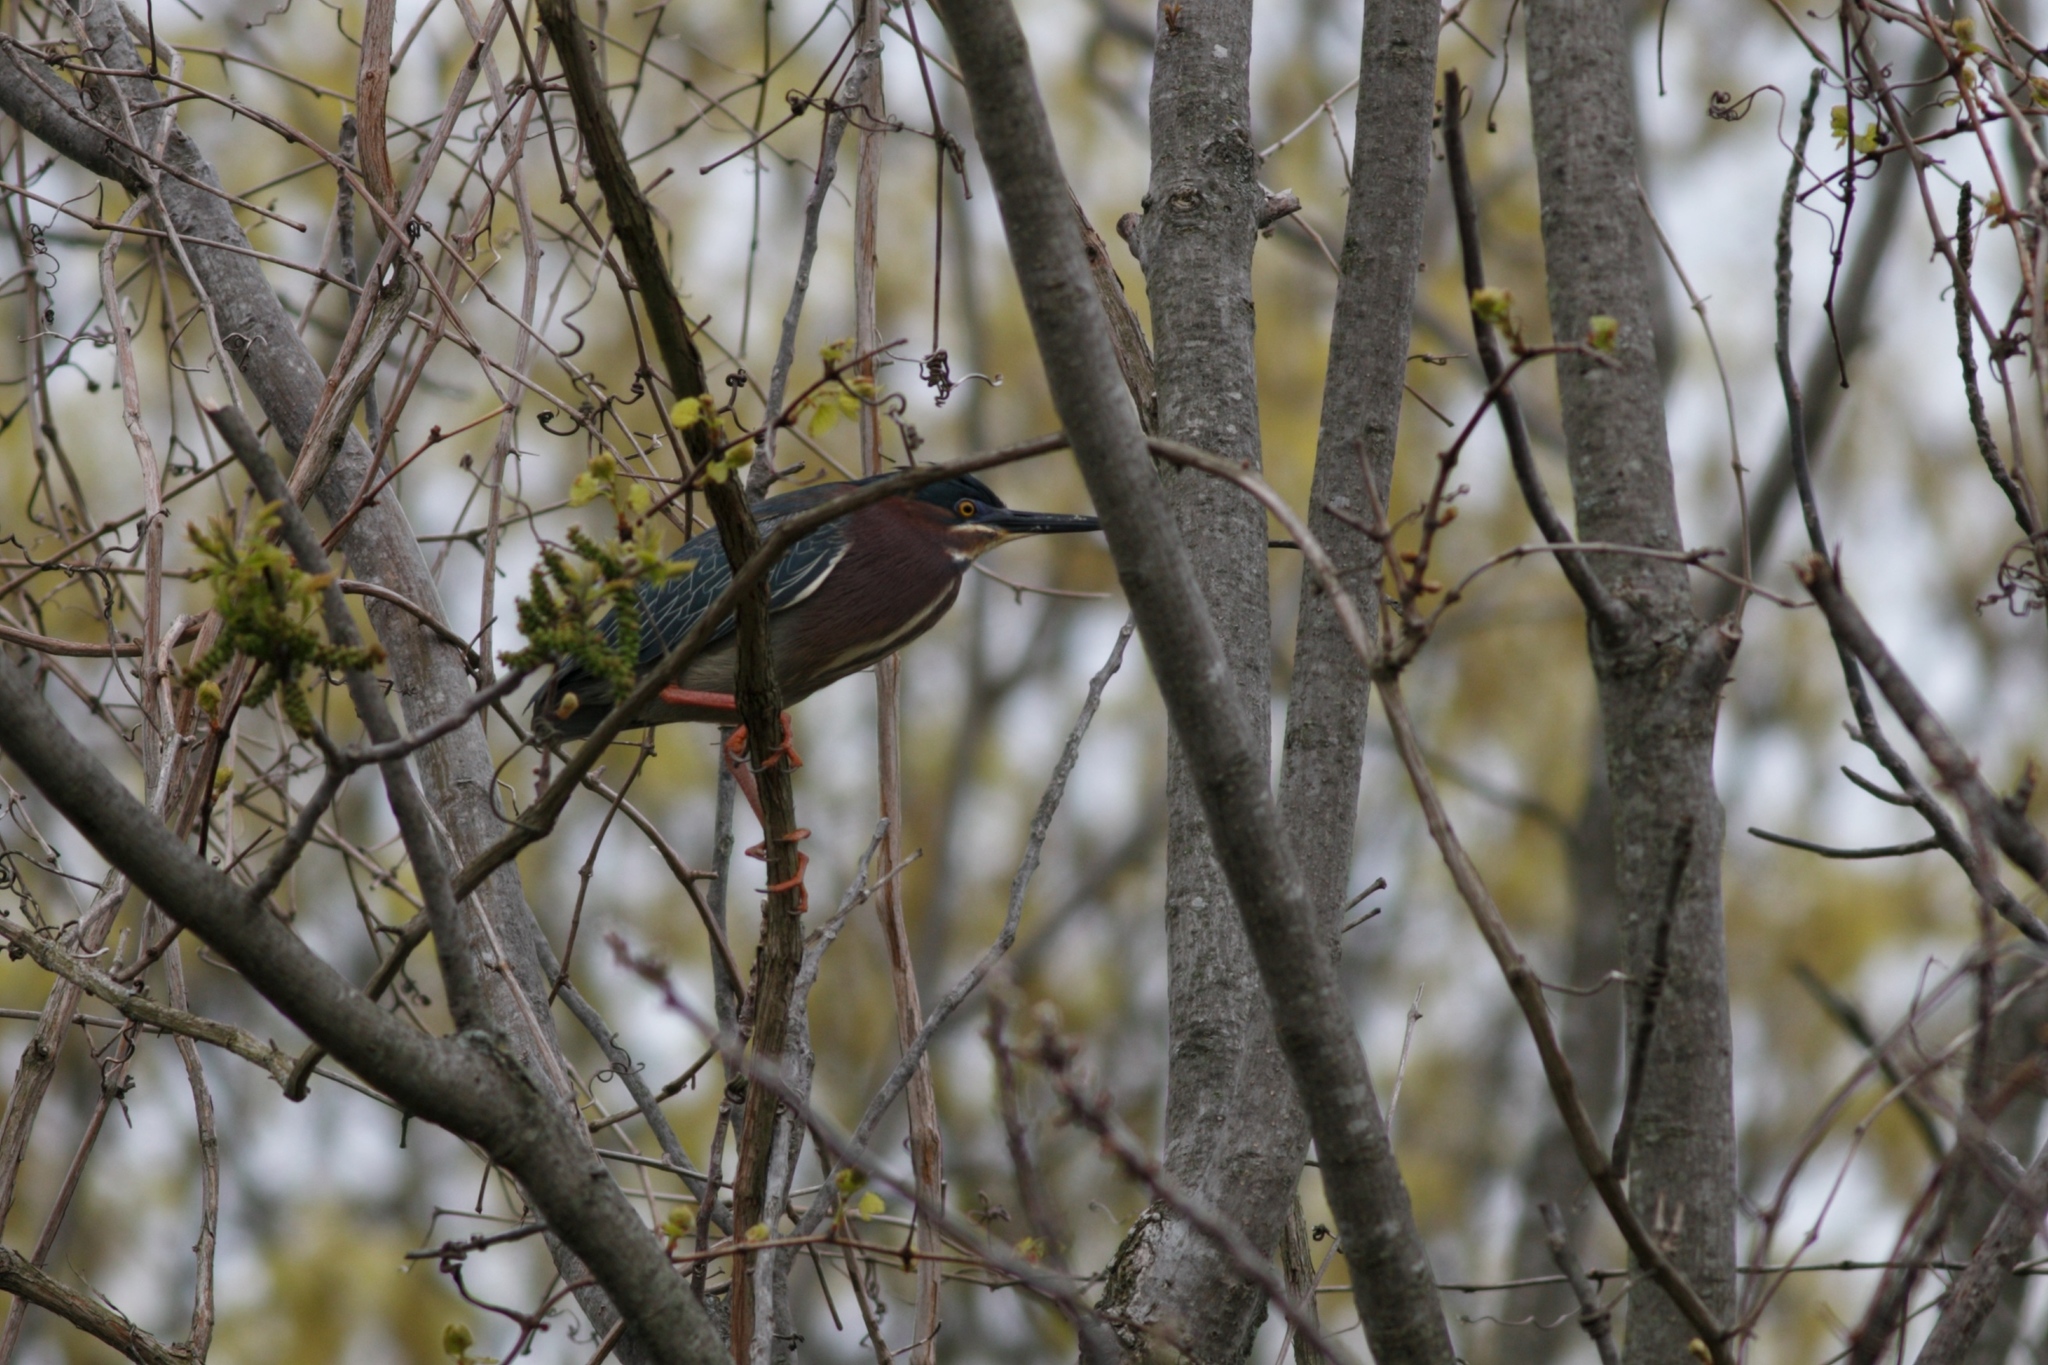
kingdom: Animalia
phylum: Chordata
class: Aves
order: Pelecaniformes
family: Ardeidae
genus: Butorides
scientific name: Butorides virescens
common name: Green heron
